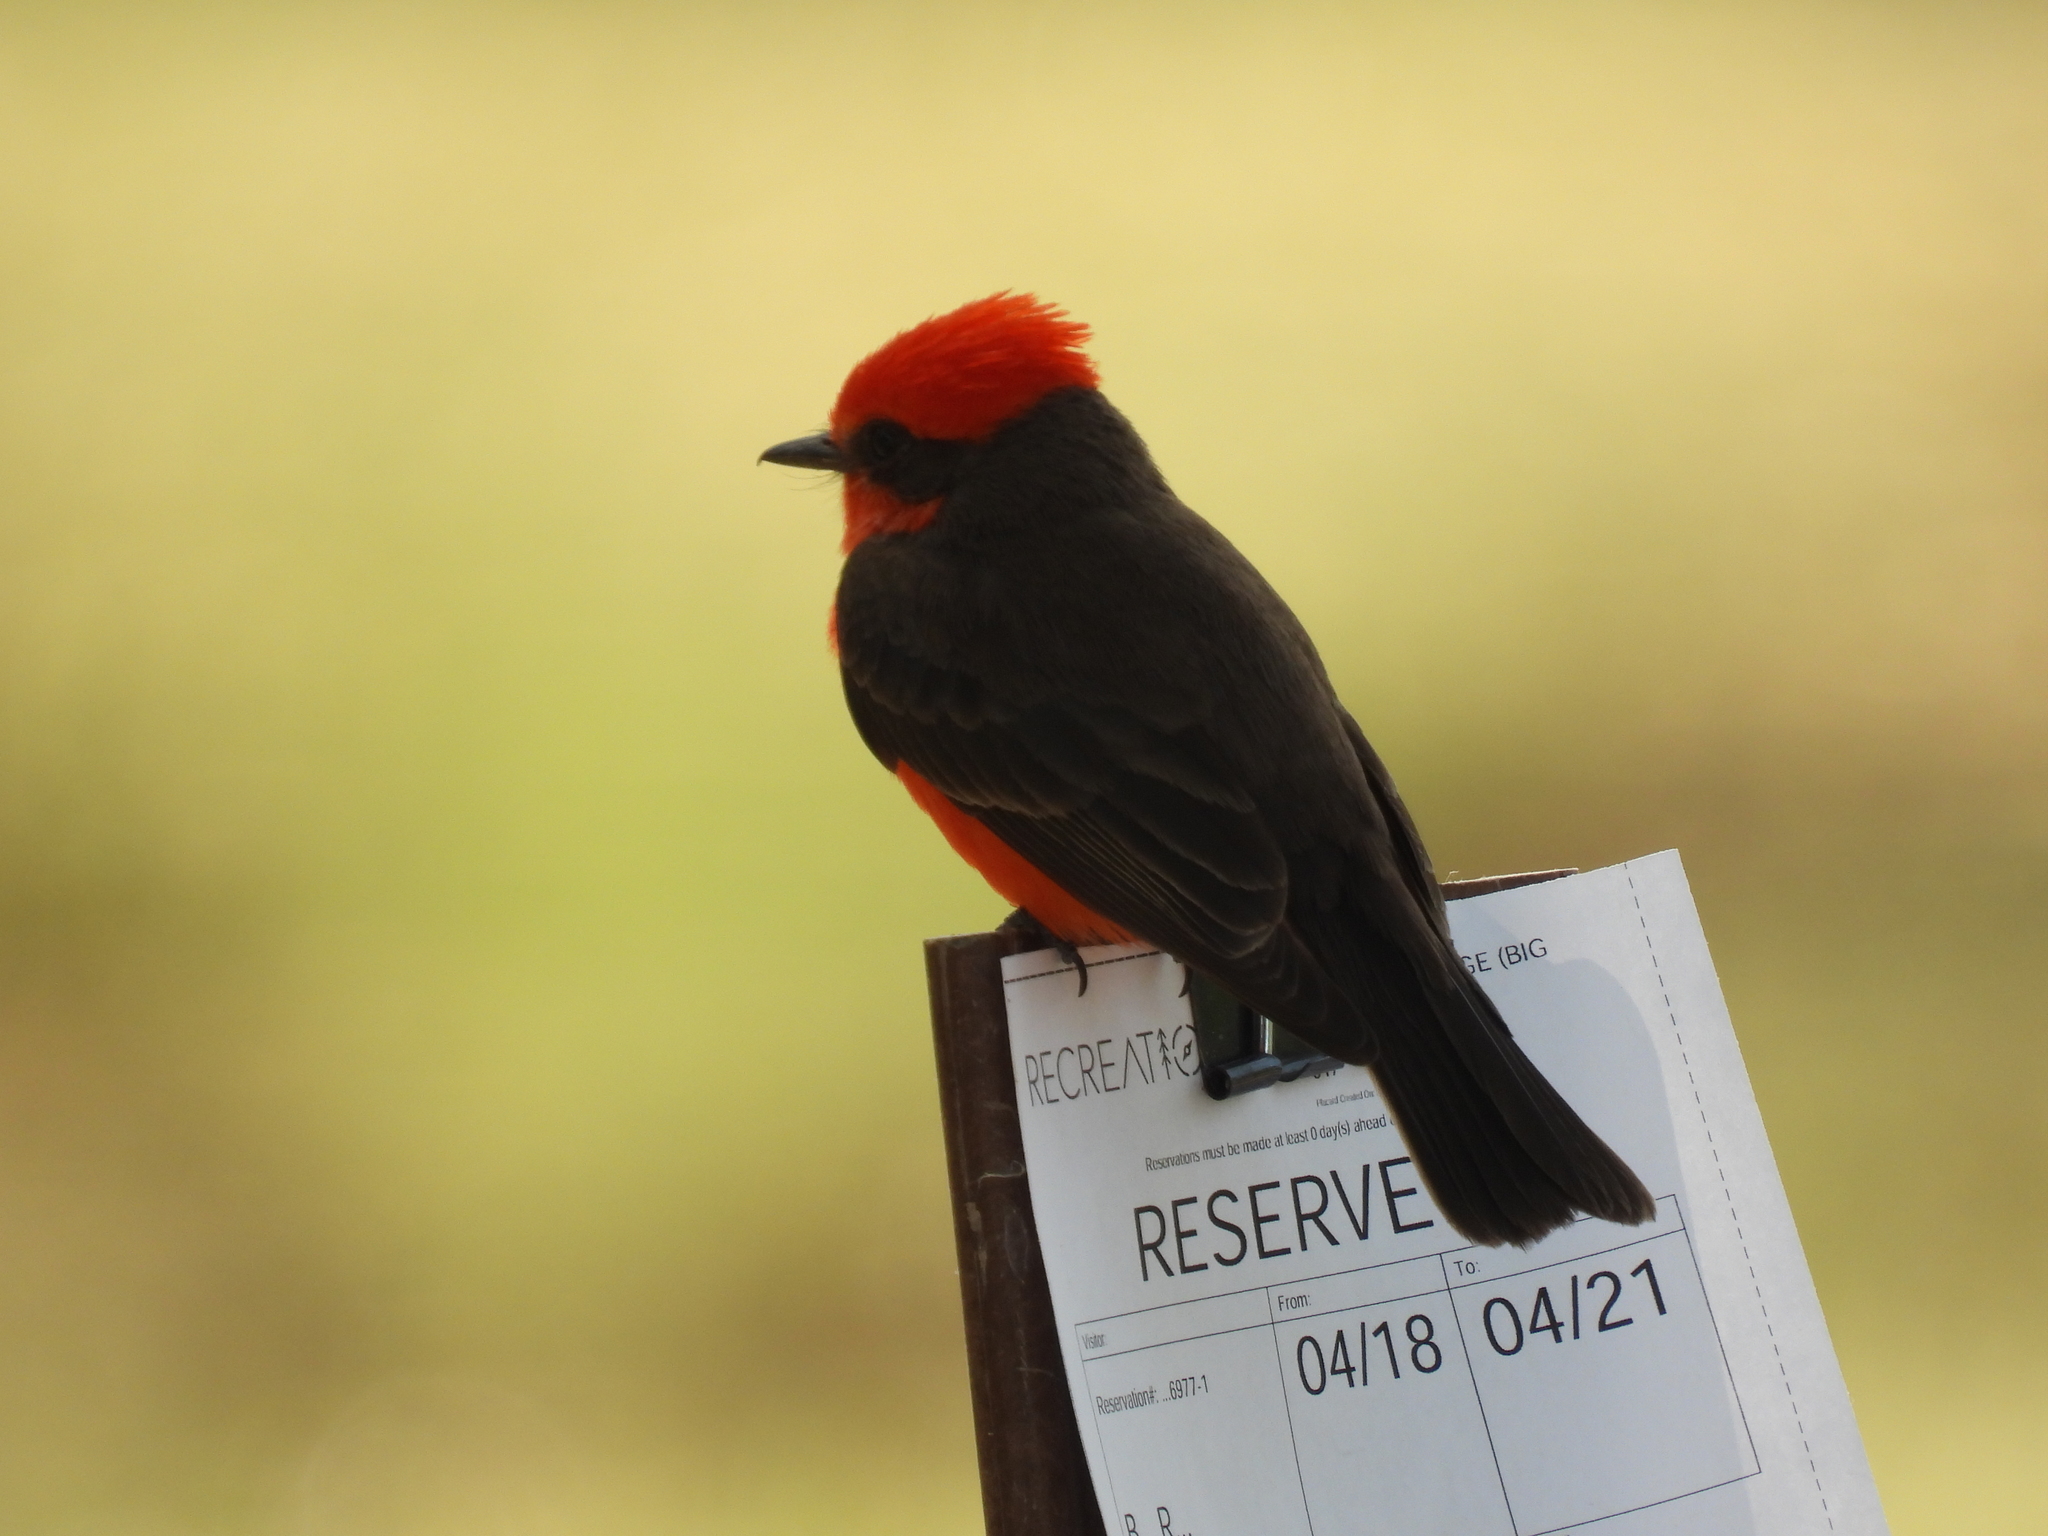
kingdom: Animalia
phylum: Chordata
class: Aves
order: Passeriformes
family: Tyrannidae
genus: Pyrocephalus
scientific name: Pyrocephalus rubinus
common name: Vermilion flycatcher
